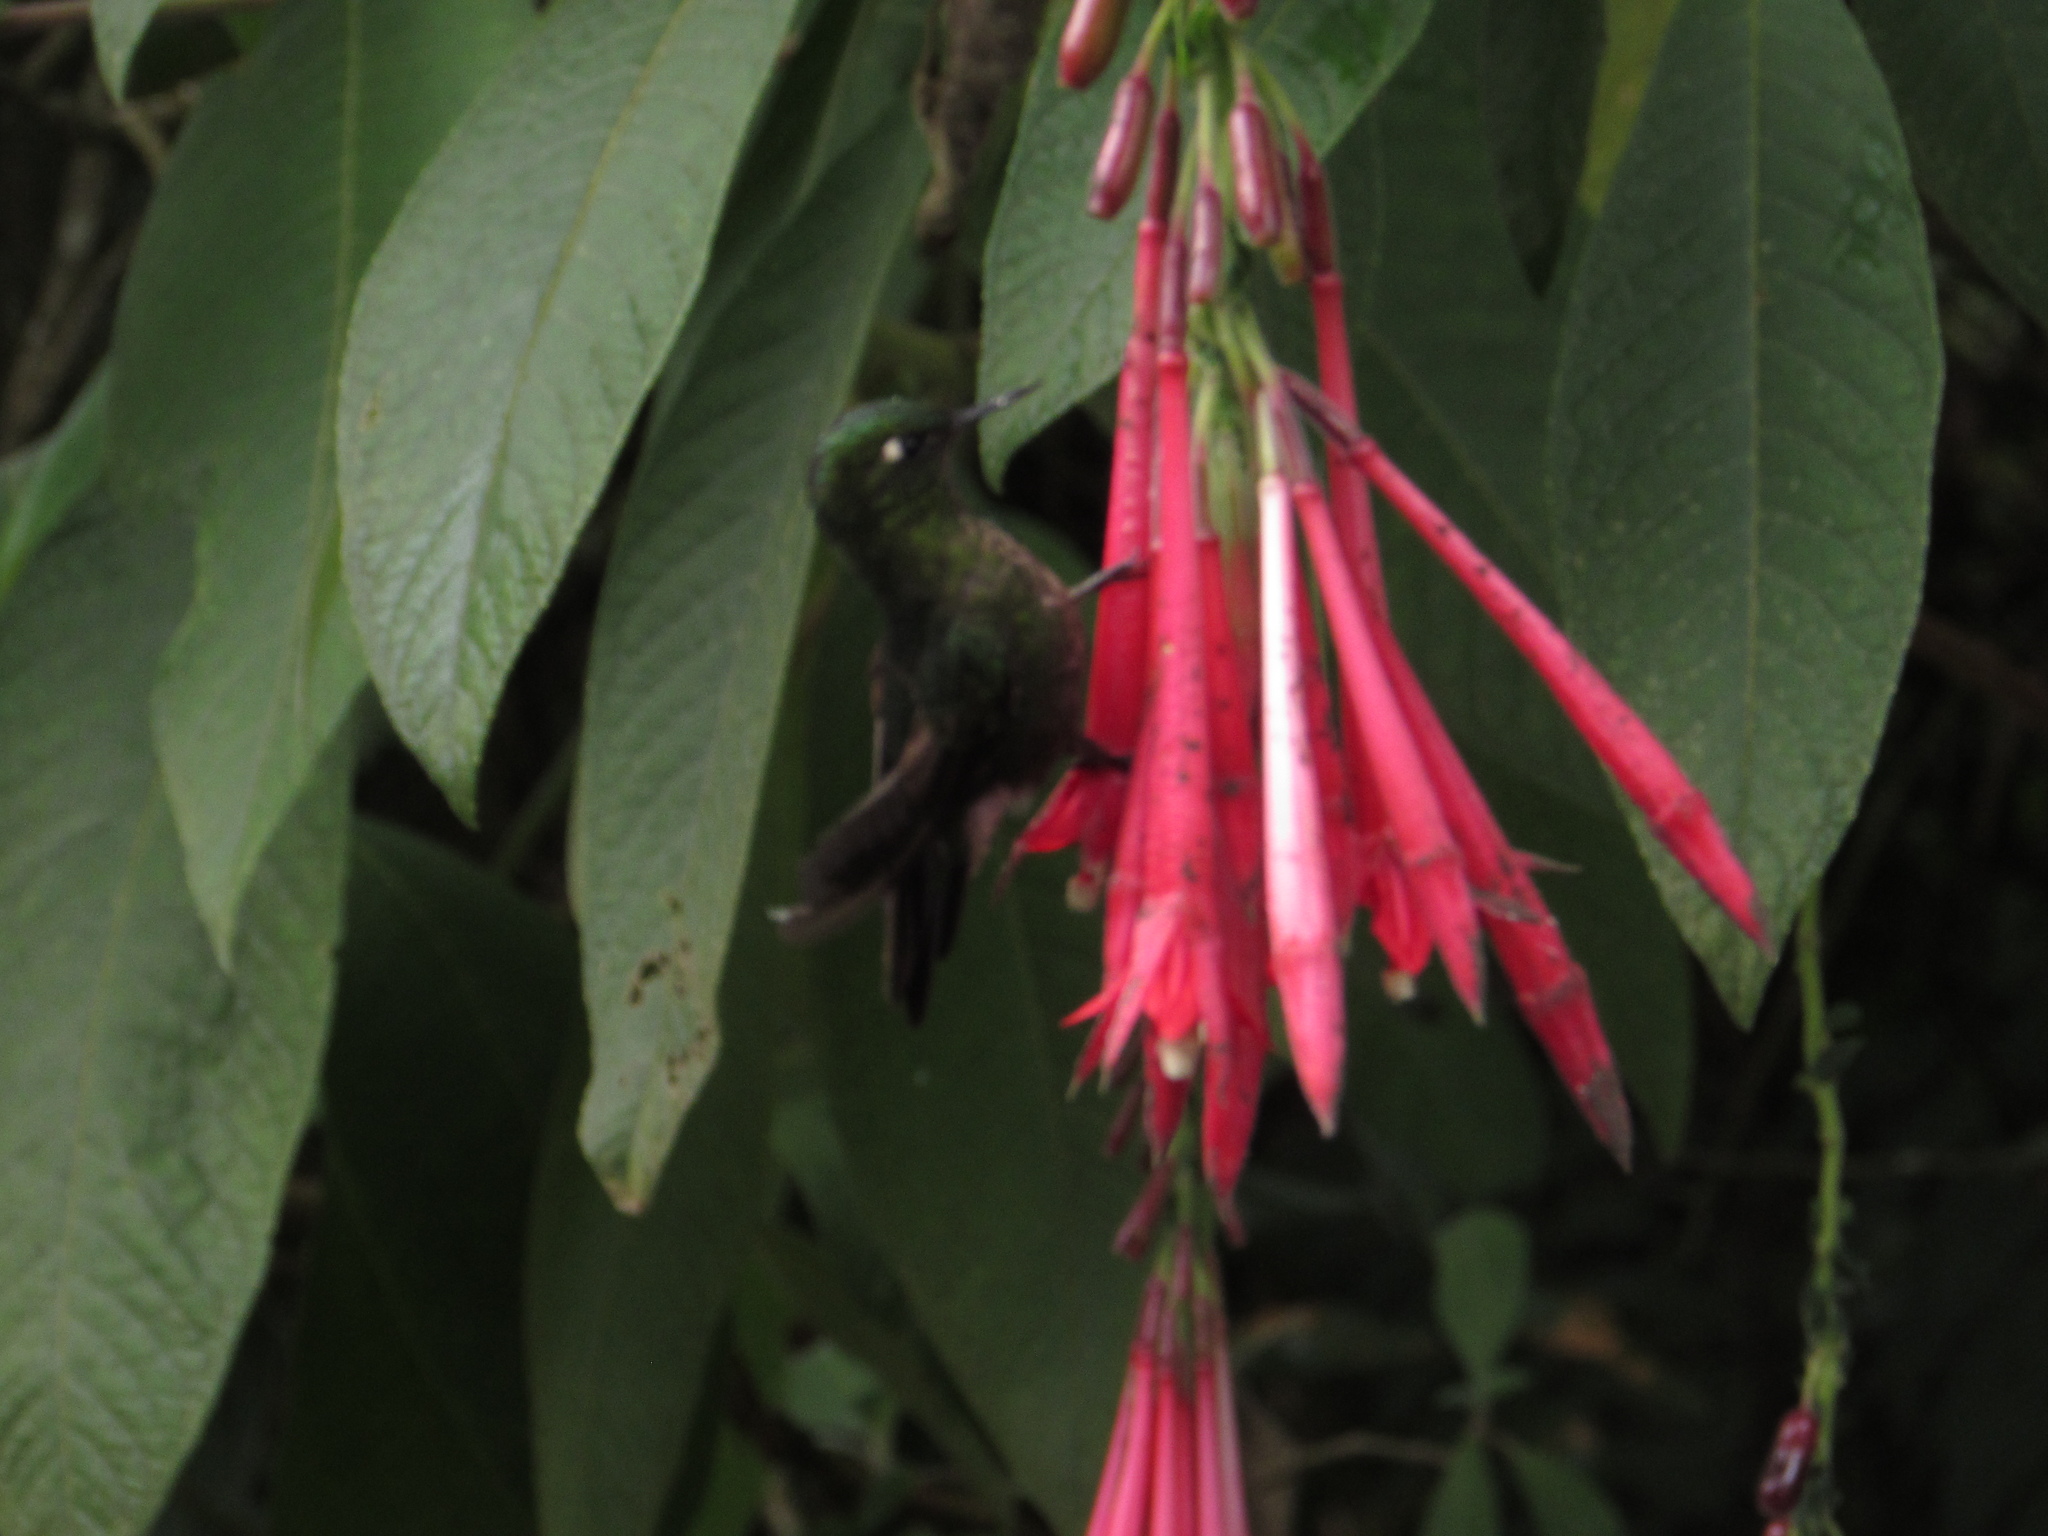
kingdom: Animalia
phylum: Chordata
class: Aves
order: Apodiformes
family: Trochilidae
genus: Metallura
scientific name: Metallura tyrianthina
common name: Tyrian metaltail
